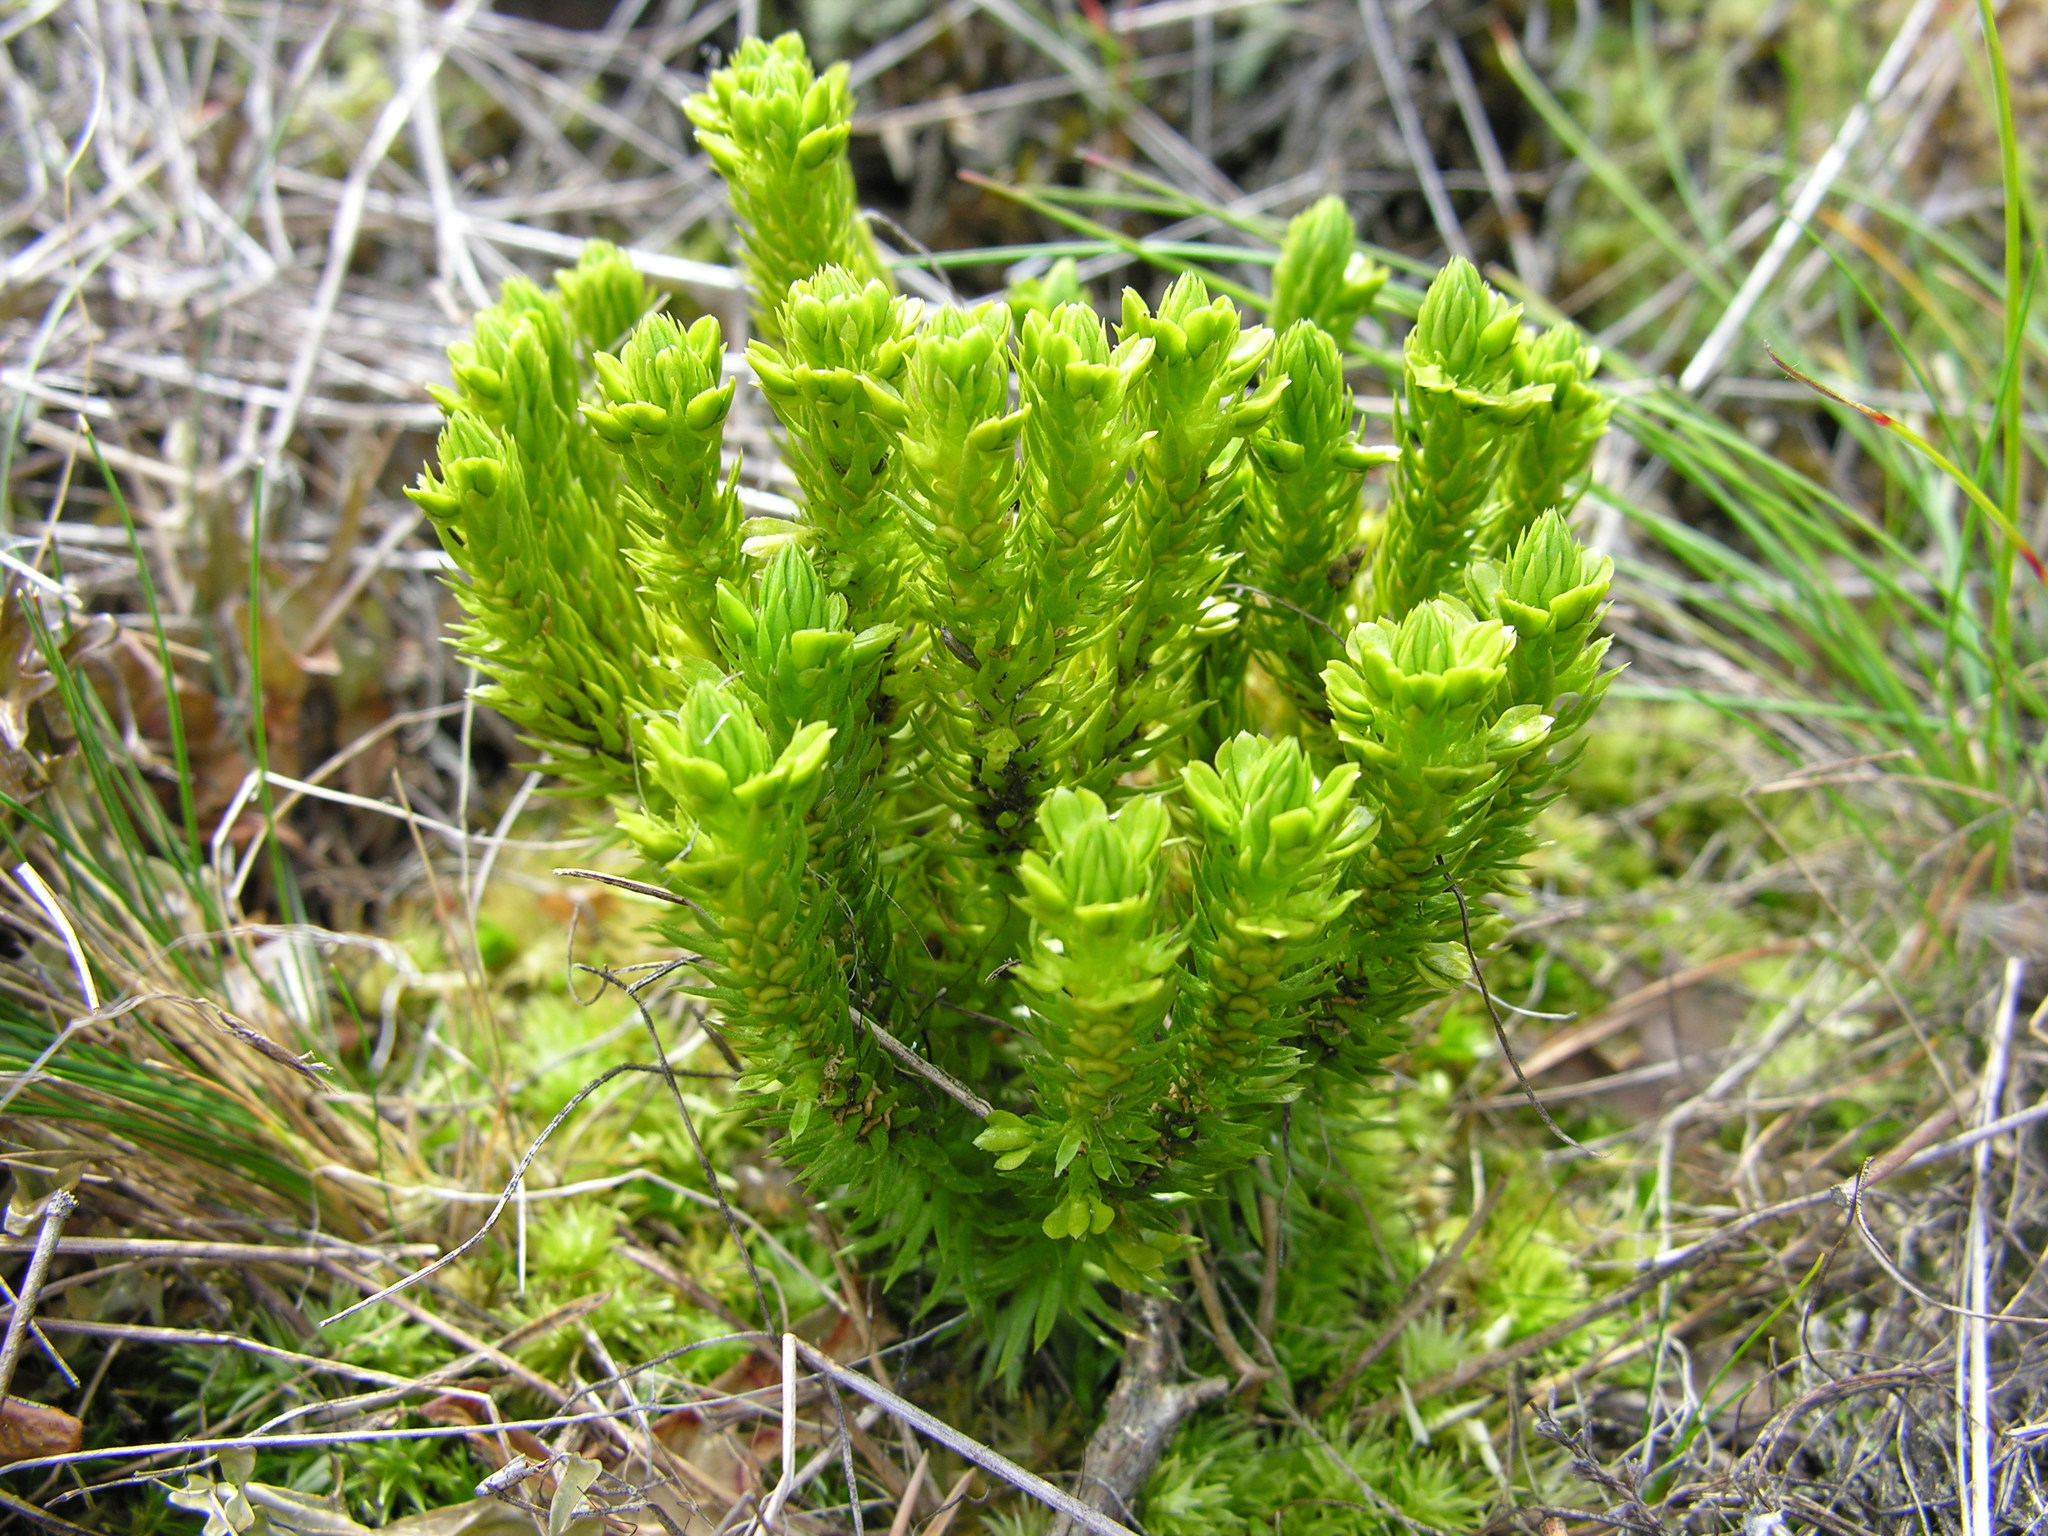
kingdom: Plantae
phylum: Tracheophyta
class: Lycopodiopsida
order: Lycopodiales
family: Lycopodiaceae
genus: Huperzia
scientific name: Huperzia selago
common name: Northern firmoss
